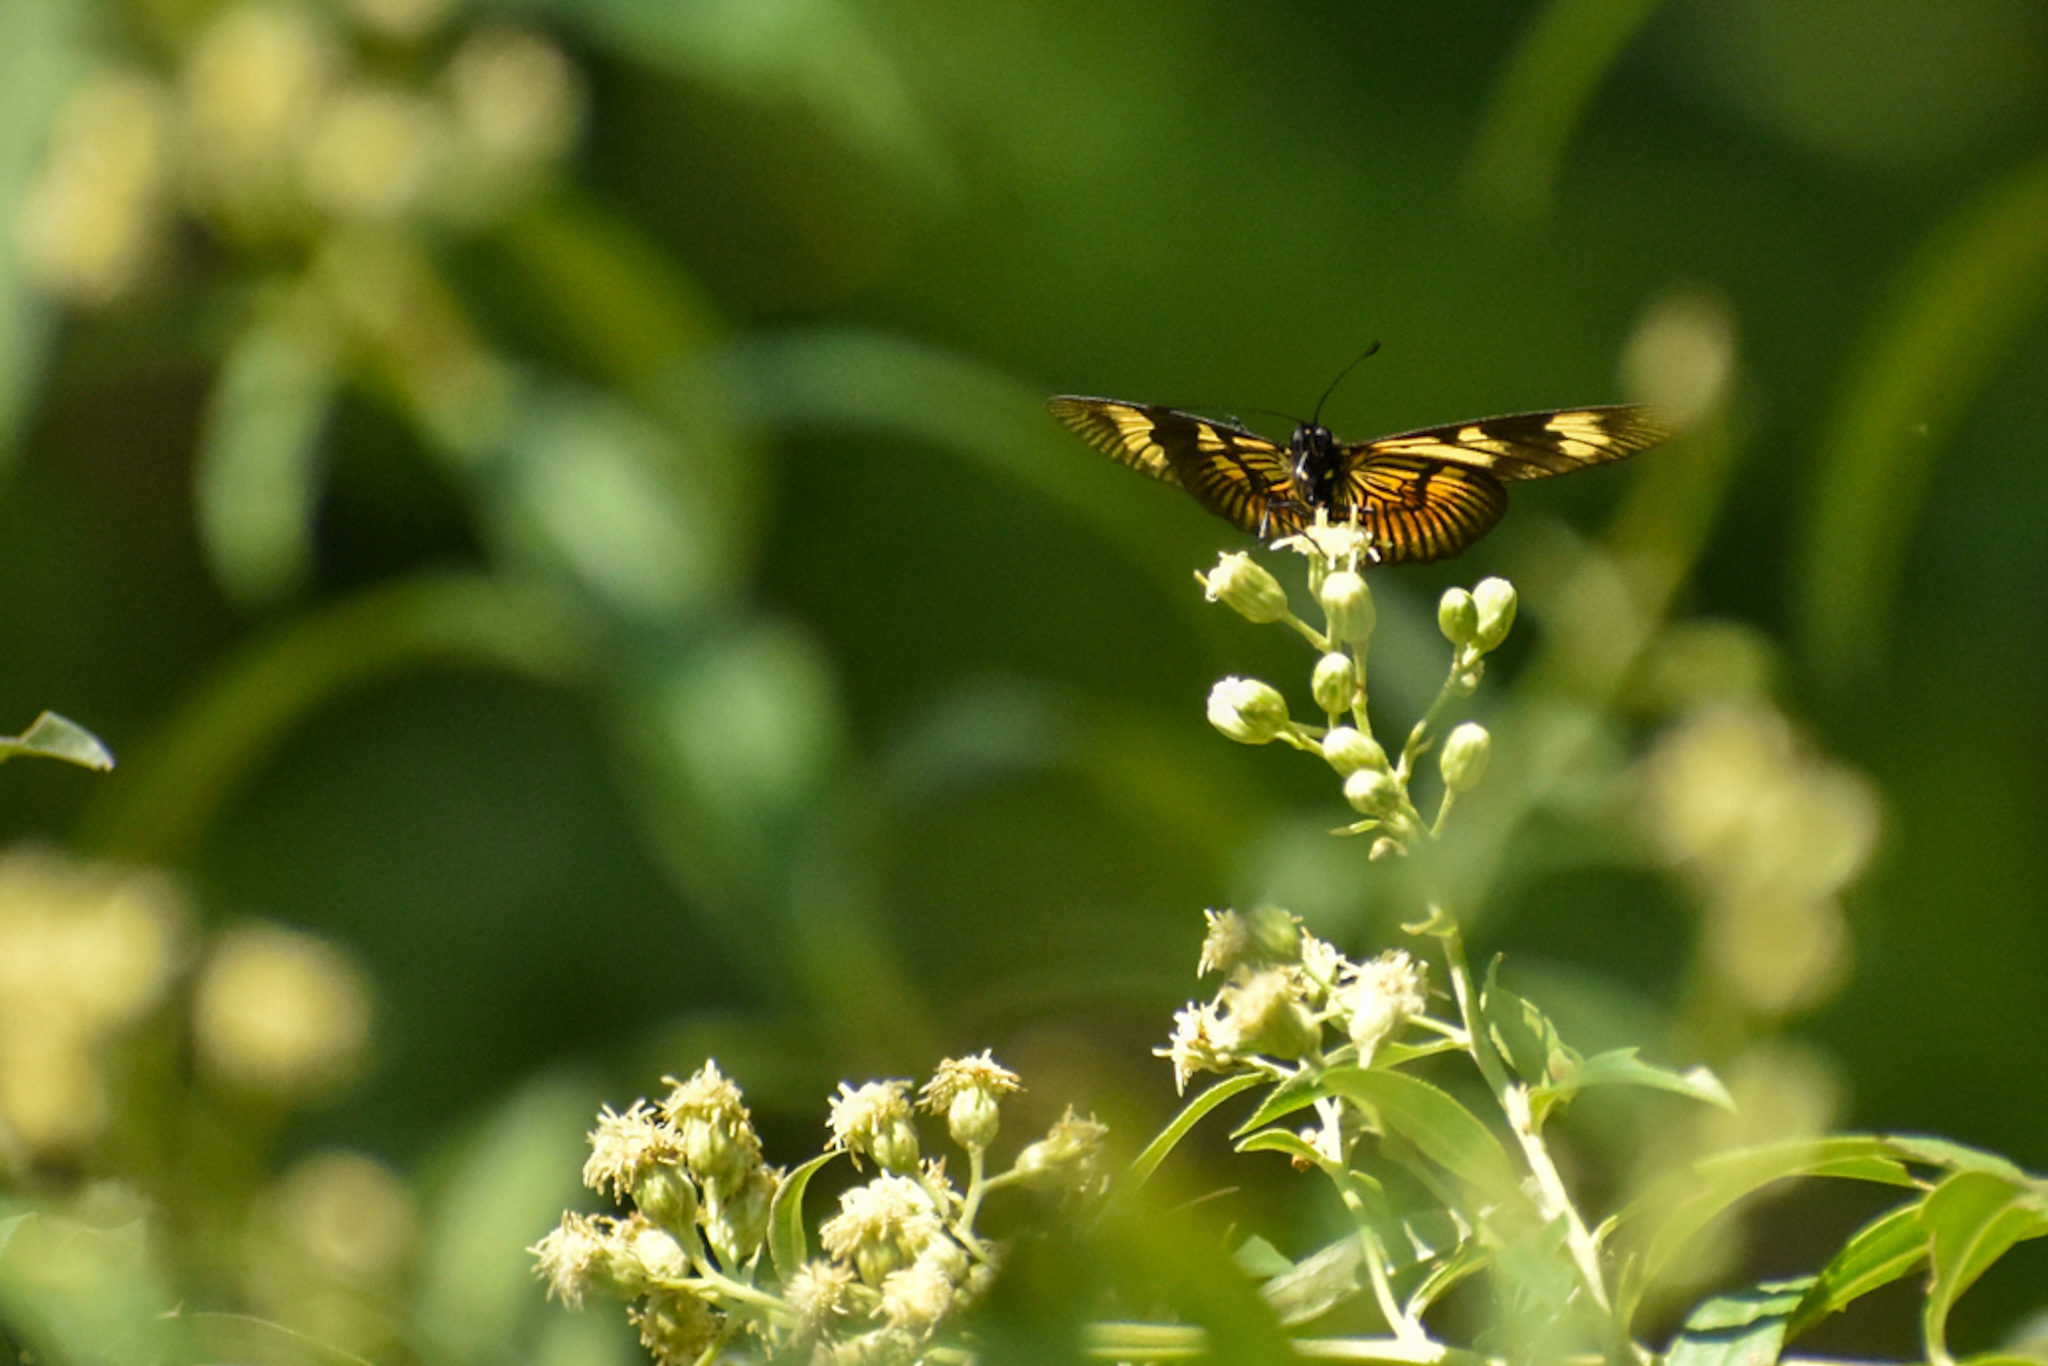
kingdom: Animalia
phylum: Arthropoda
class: Insecta
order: Lepidoptera
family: Nymphalidae
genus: Actinote
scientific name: Actinote pellenea
